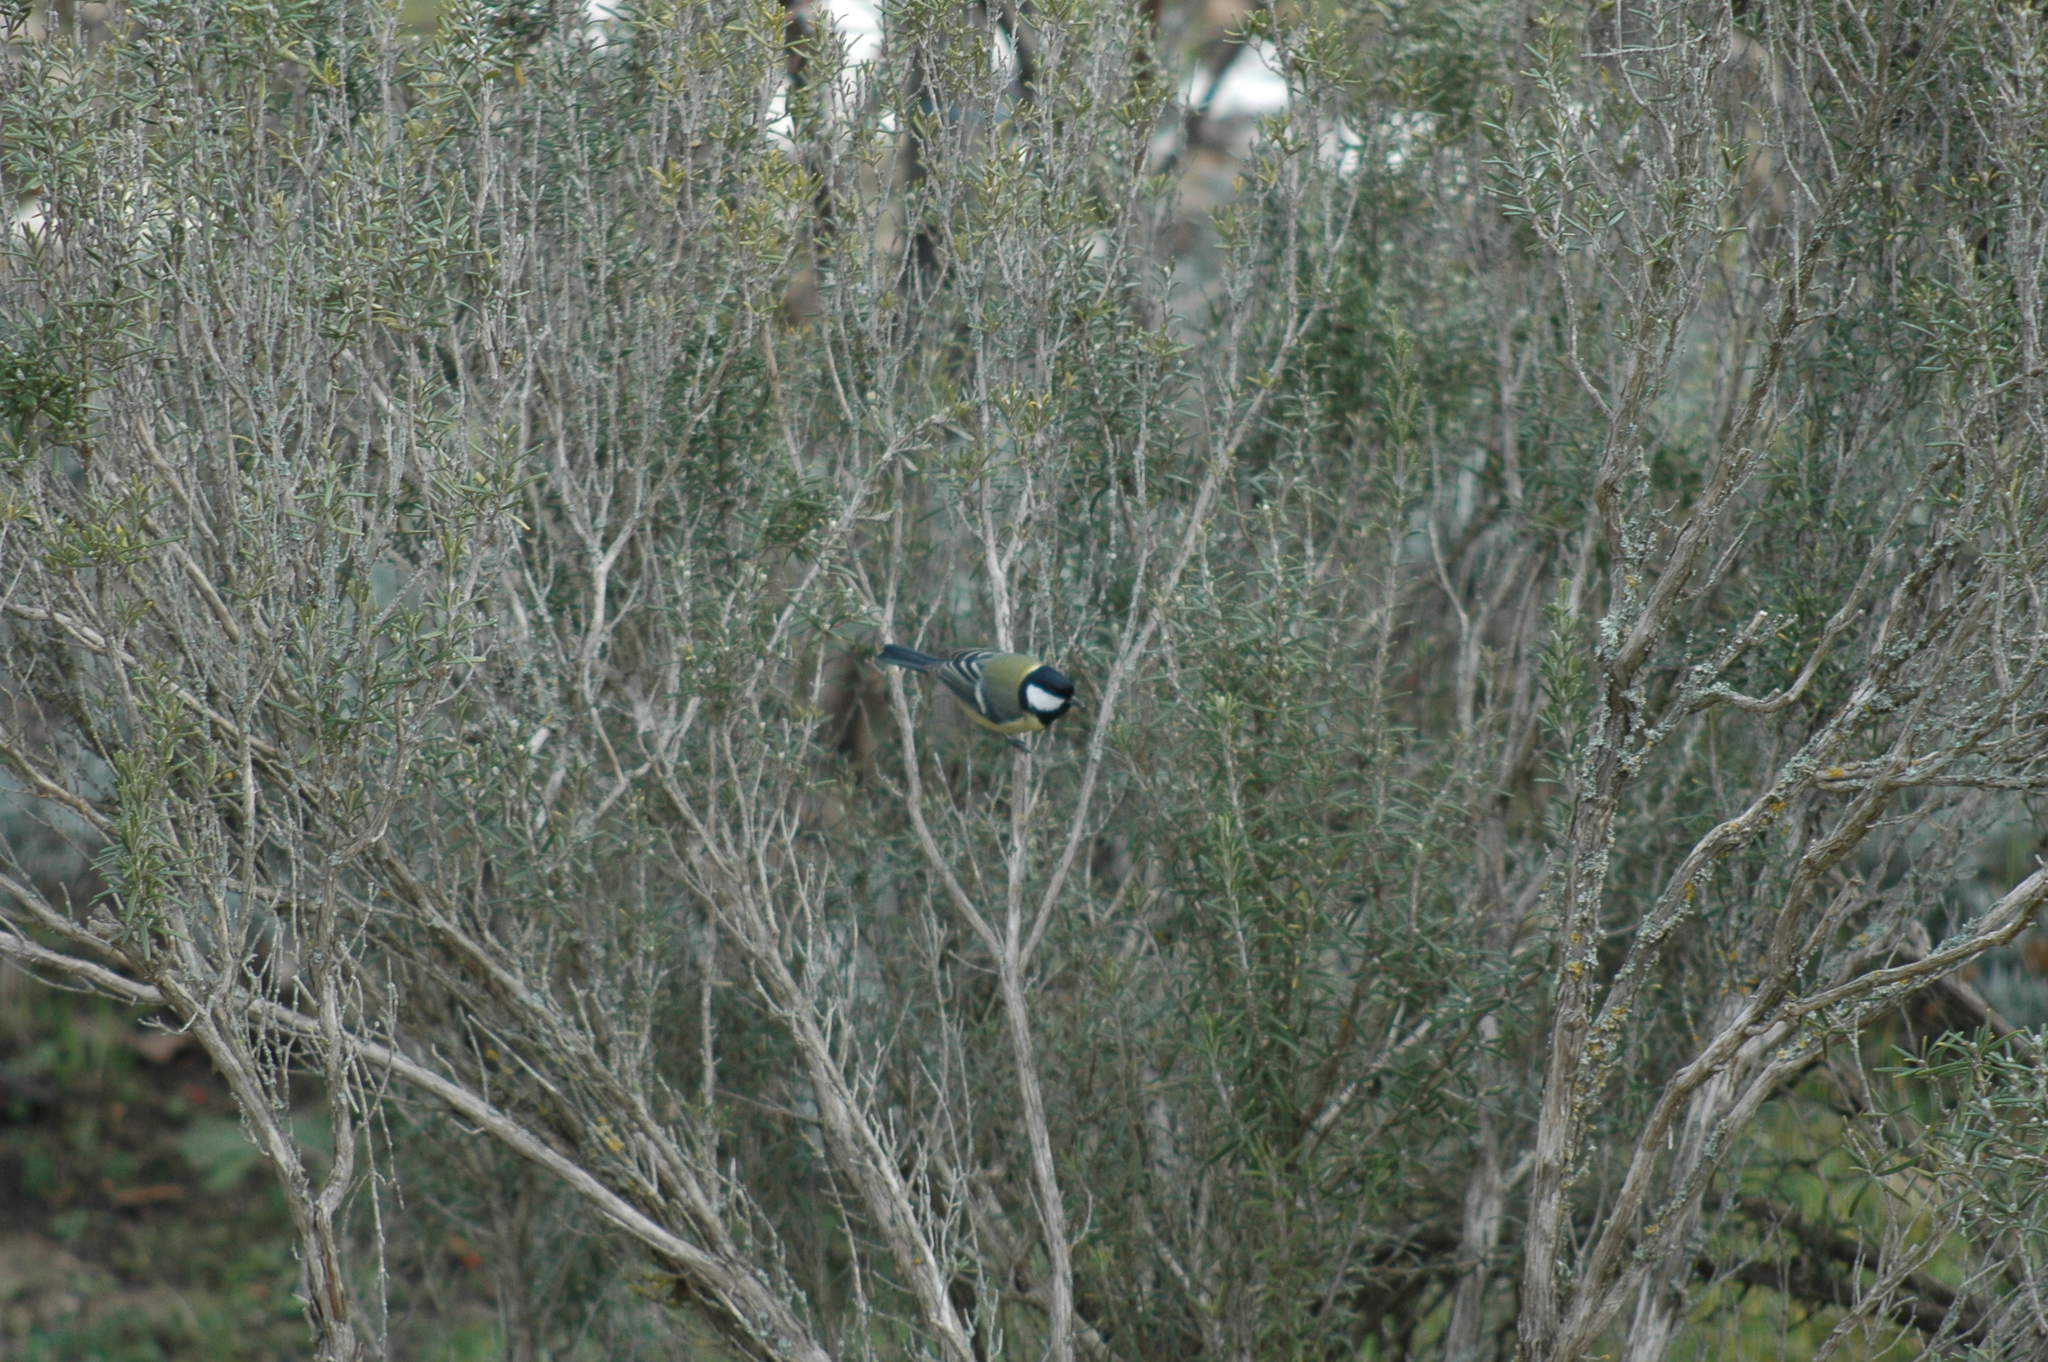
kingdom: Animalia
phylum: Chordata
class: Aves
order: Passeriformes
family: Paridae
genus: Parus
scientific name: Parus major
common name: Great tit
